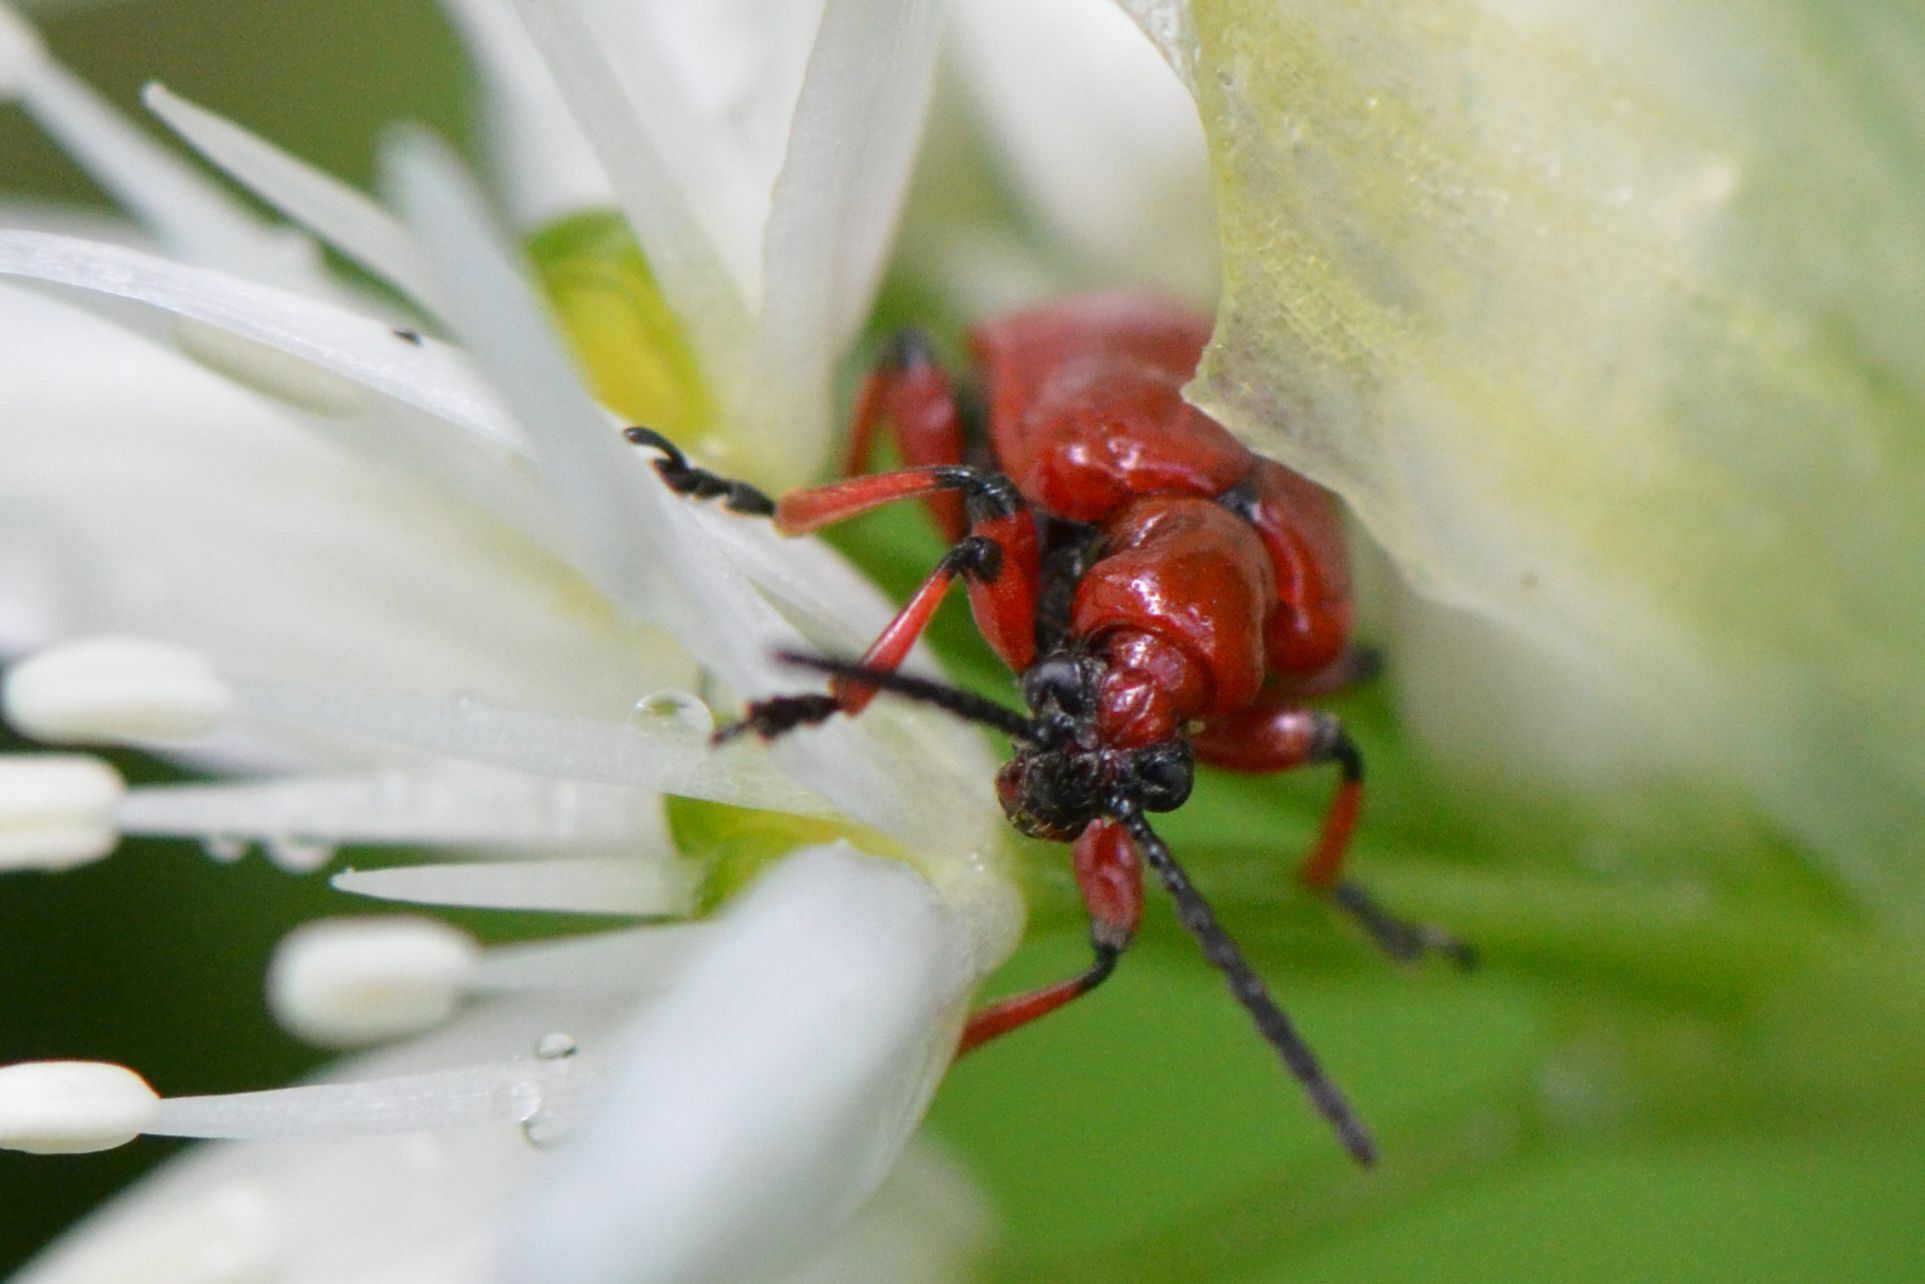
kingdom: Animalia
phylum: Arthropoda
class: Insecta
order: Coleoptera
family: Chrysomelidae
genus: Lilioceris
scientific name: Lilioceris merdigera
